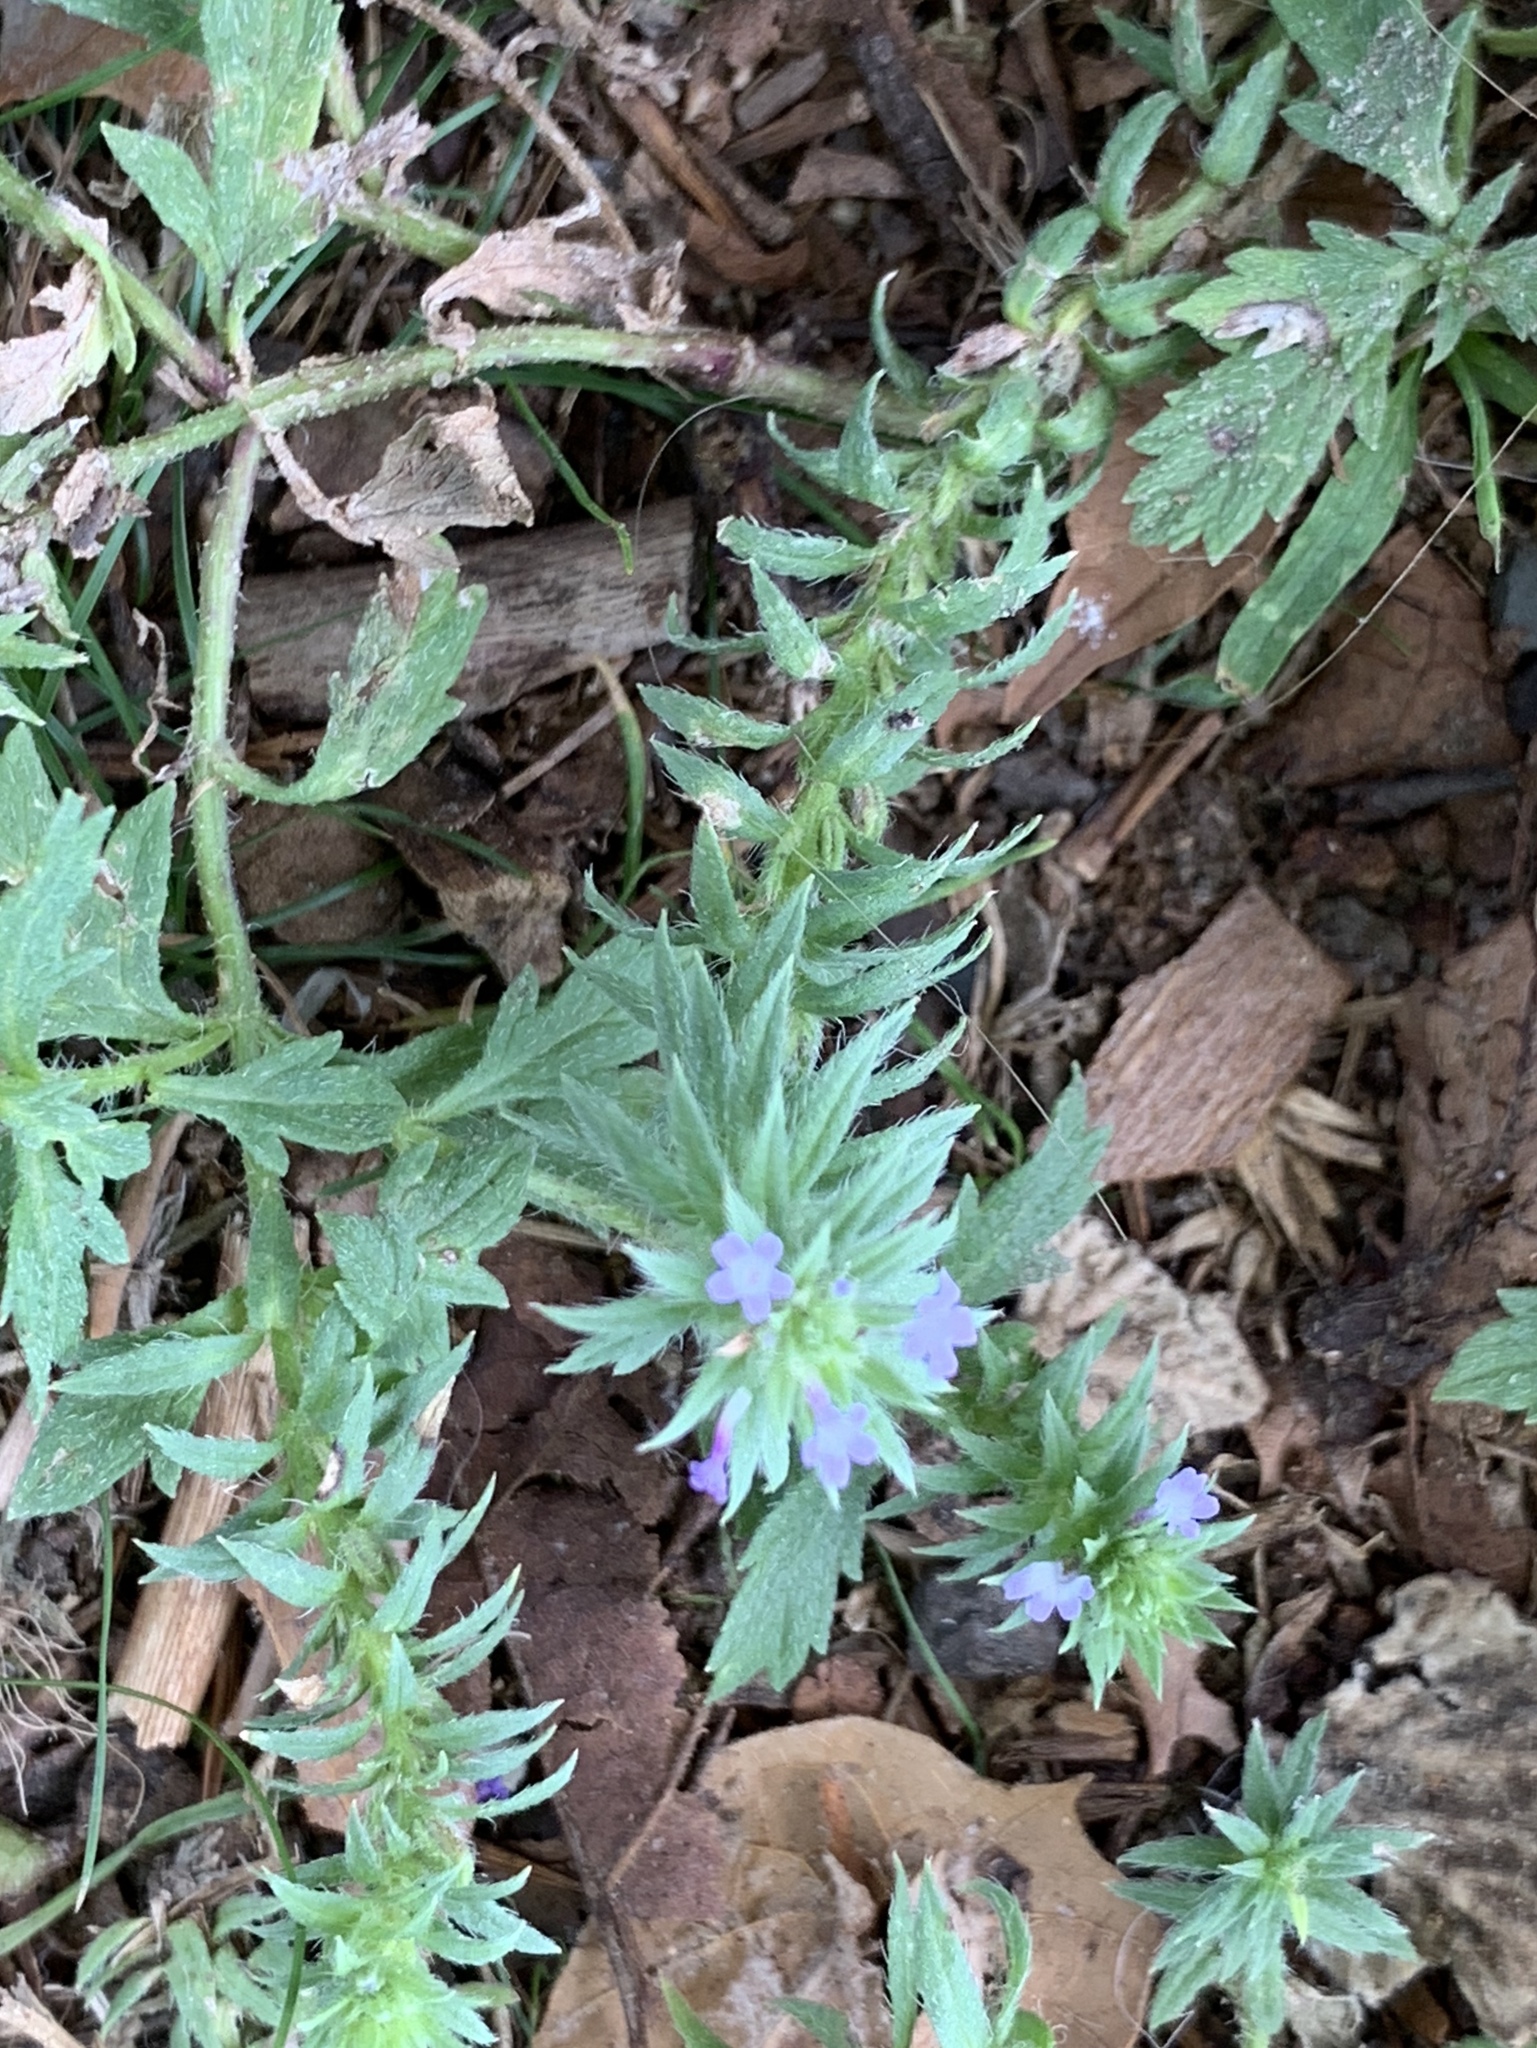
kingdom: Plantae
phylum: Tracheophyta
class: Magnoliopsida
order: Lamiales
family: Verbenaceae
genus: Verbena
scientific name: Verbena bracteata
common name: Bracted vervain
